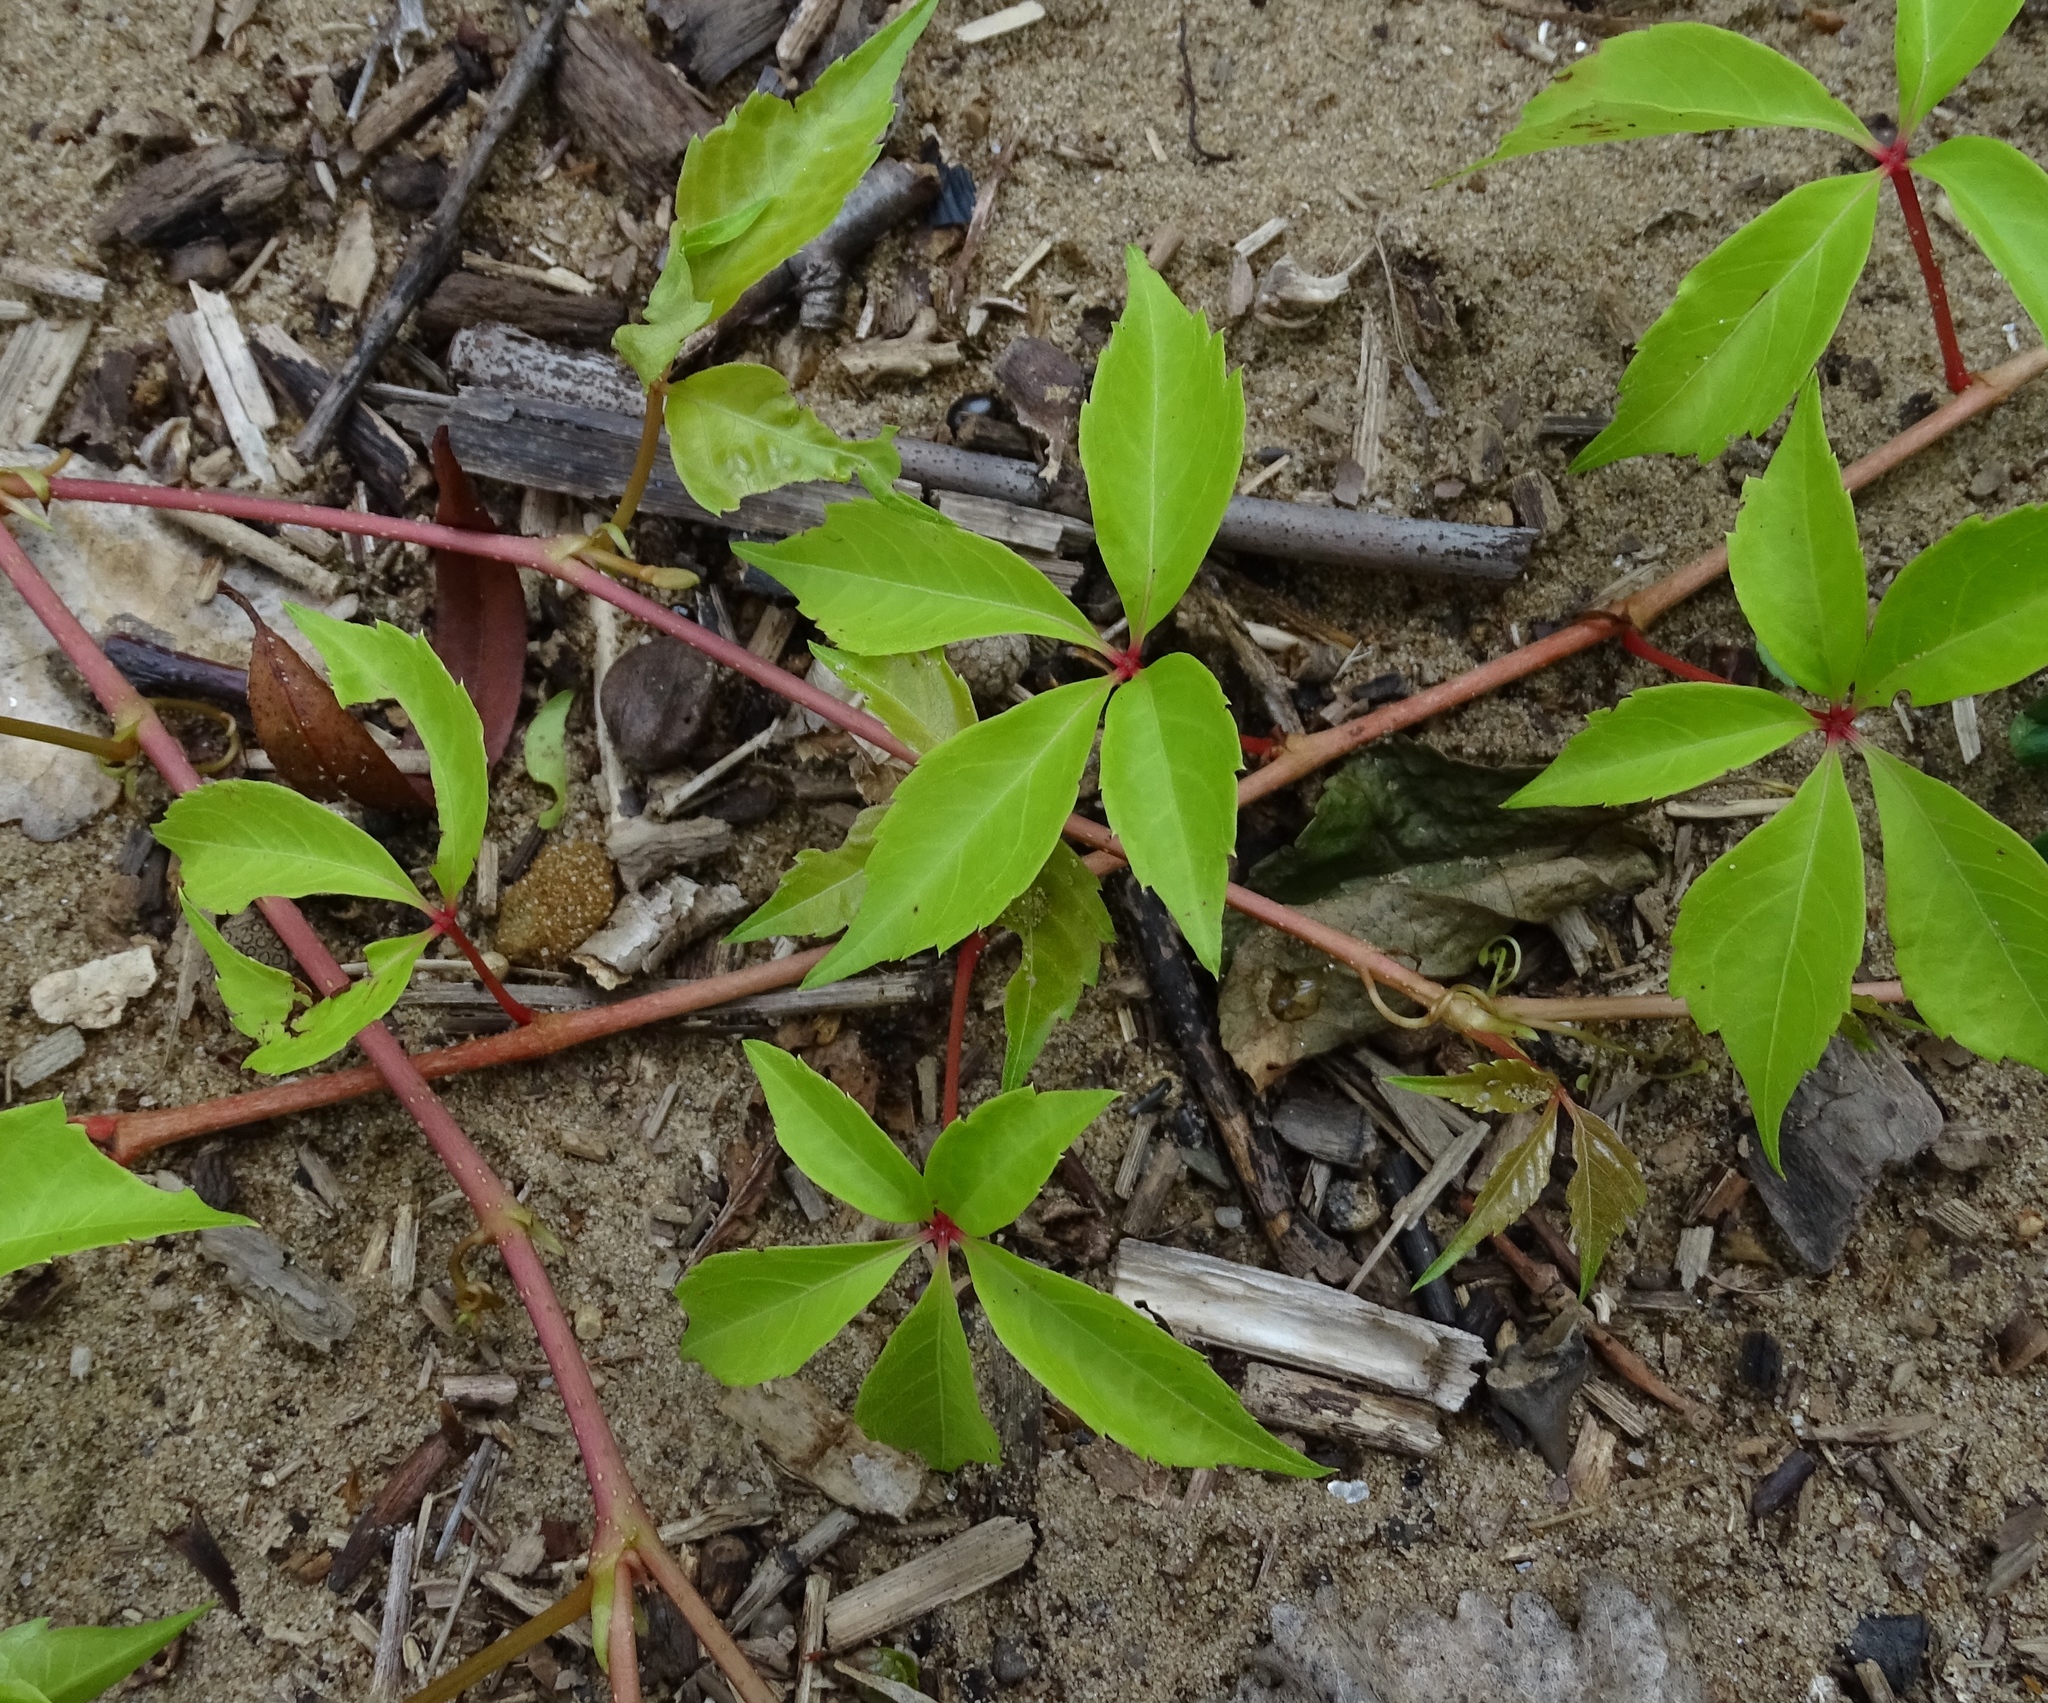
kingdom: Plantae
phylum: Tracheophyta
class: Magnoliopsida
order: Vitales
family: Vitaceae
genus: Parthenocissus
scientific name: Parthenocissus quinquefolia
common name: Virginia-creeper
